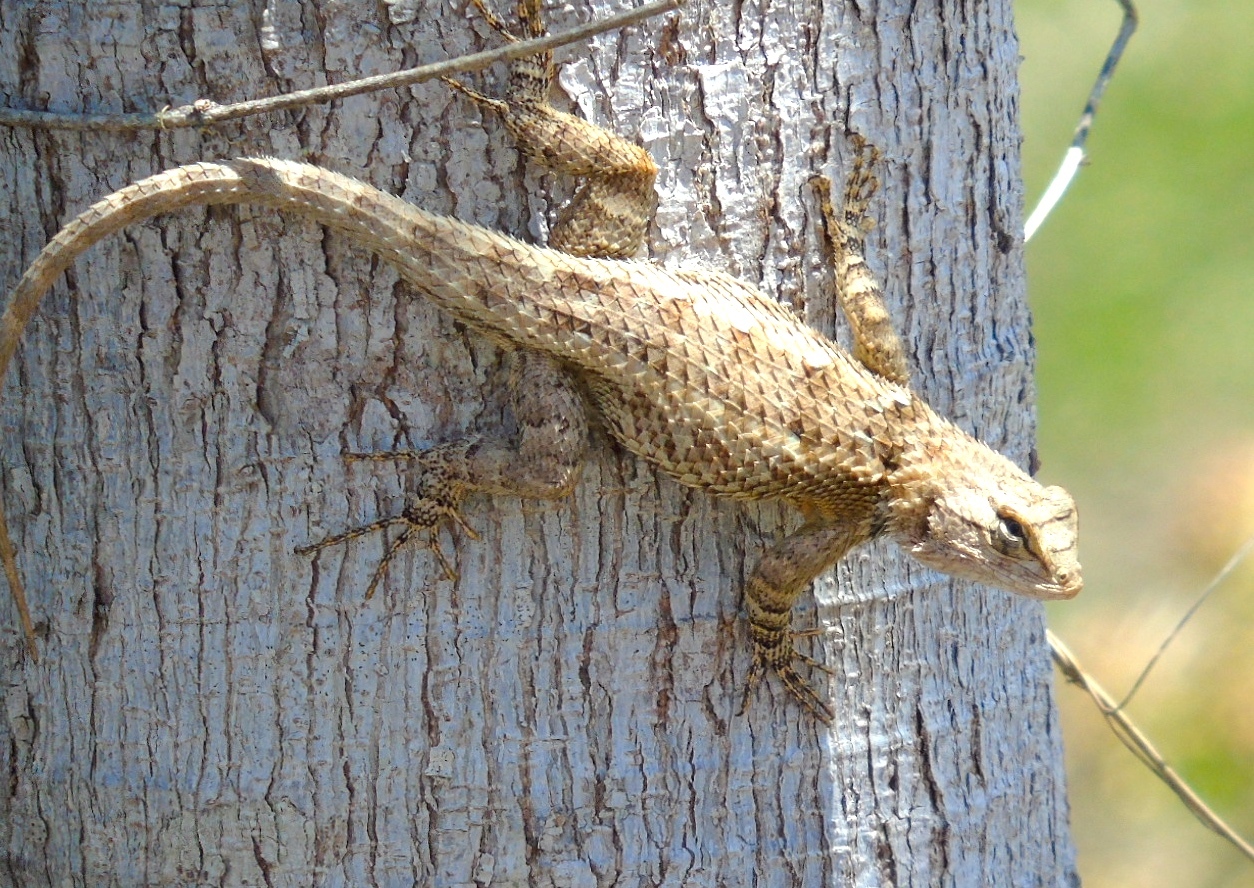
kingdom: Animalia
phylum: Chordata
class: Squamata
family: Phrynosomatidae
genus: Sceloporus
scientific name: Sceloporus clarkii
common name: Clark's spiny lizard
